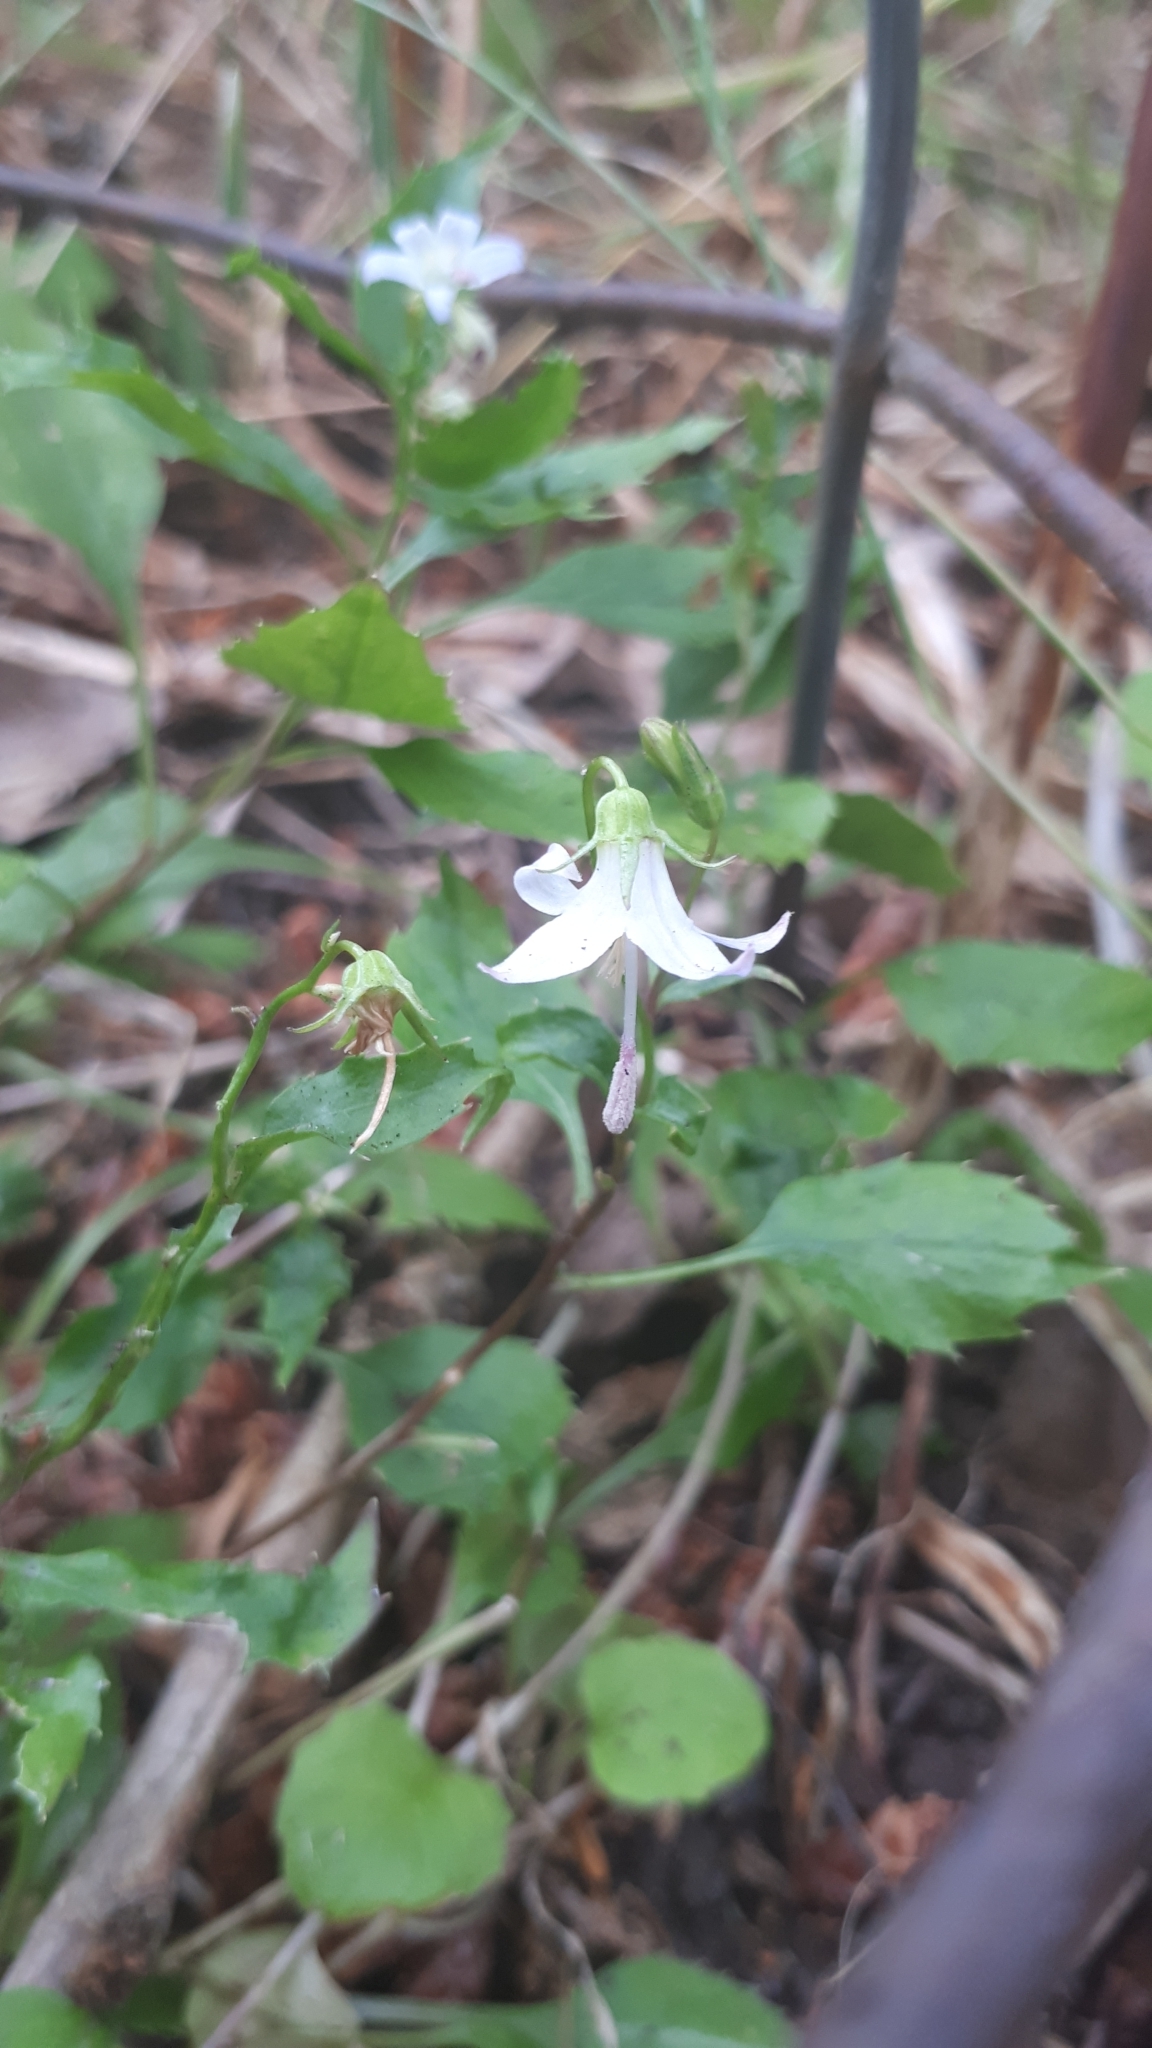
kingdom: Plantae
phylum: Tracheophyta
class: Magnoliopsida
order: Asterales
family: Campanulaceae
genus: Campanula
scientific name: Campanula scouleri
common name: Scouler's harebell
